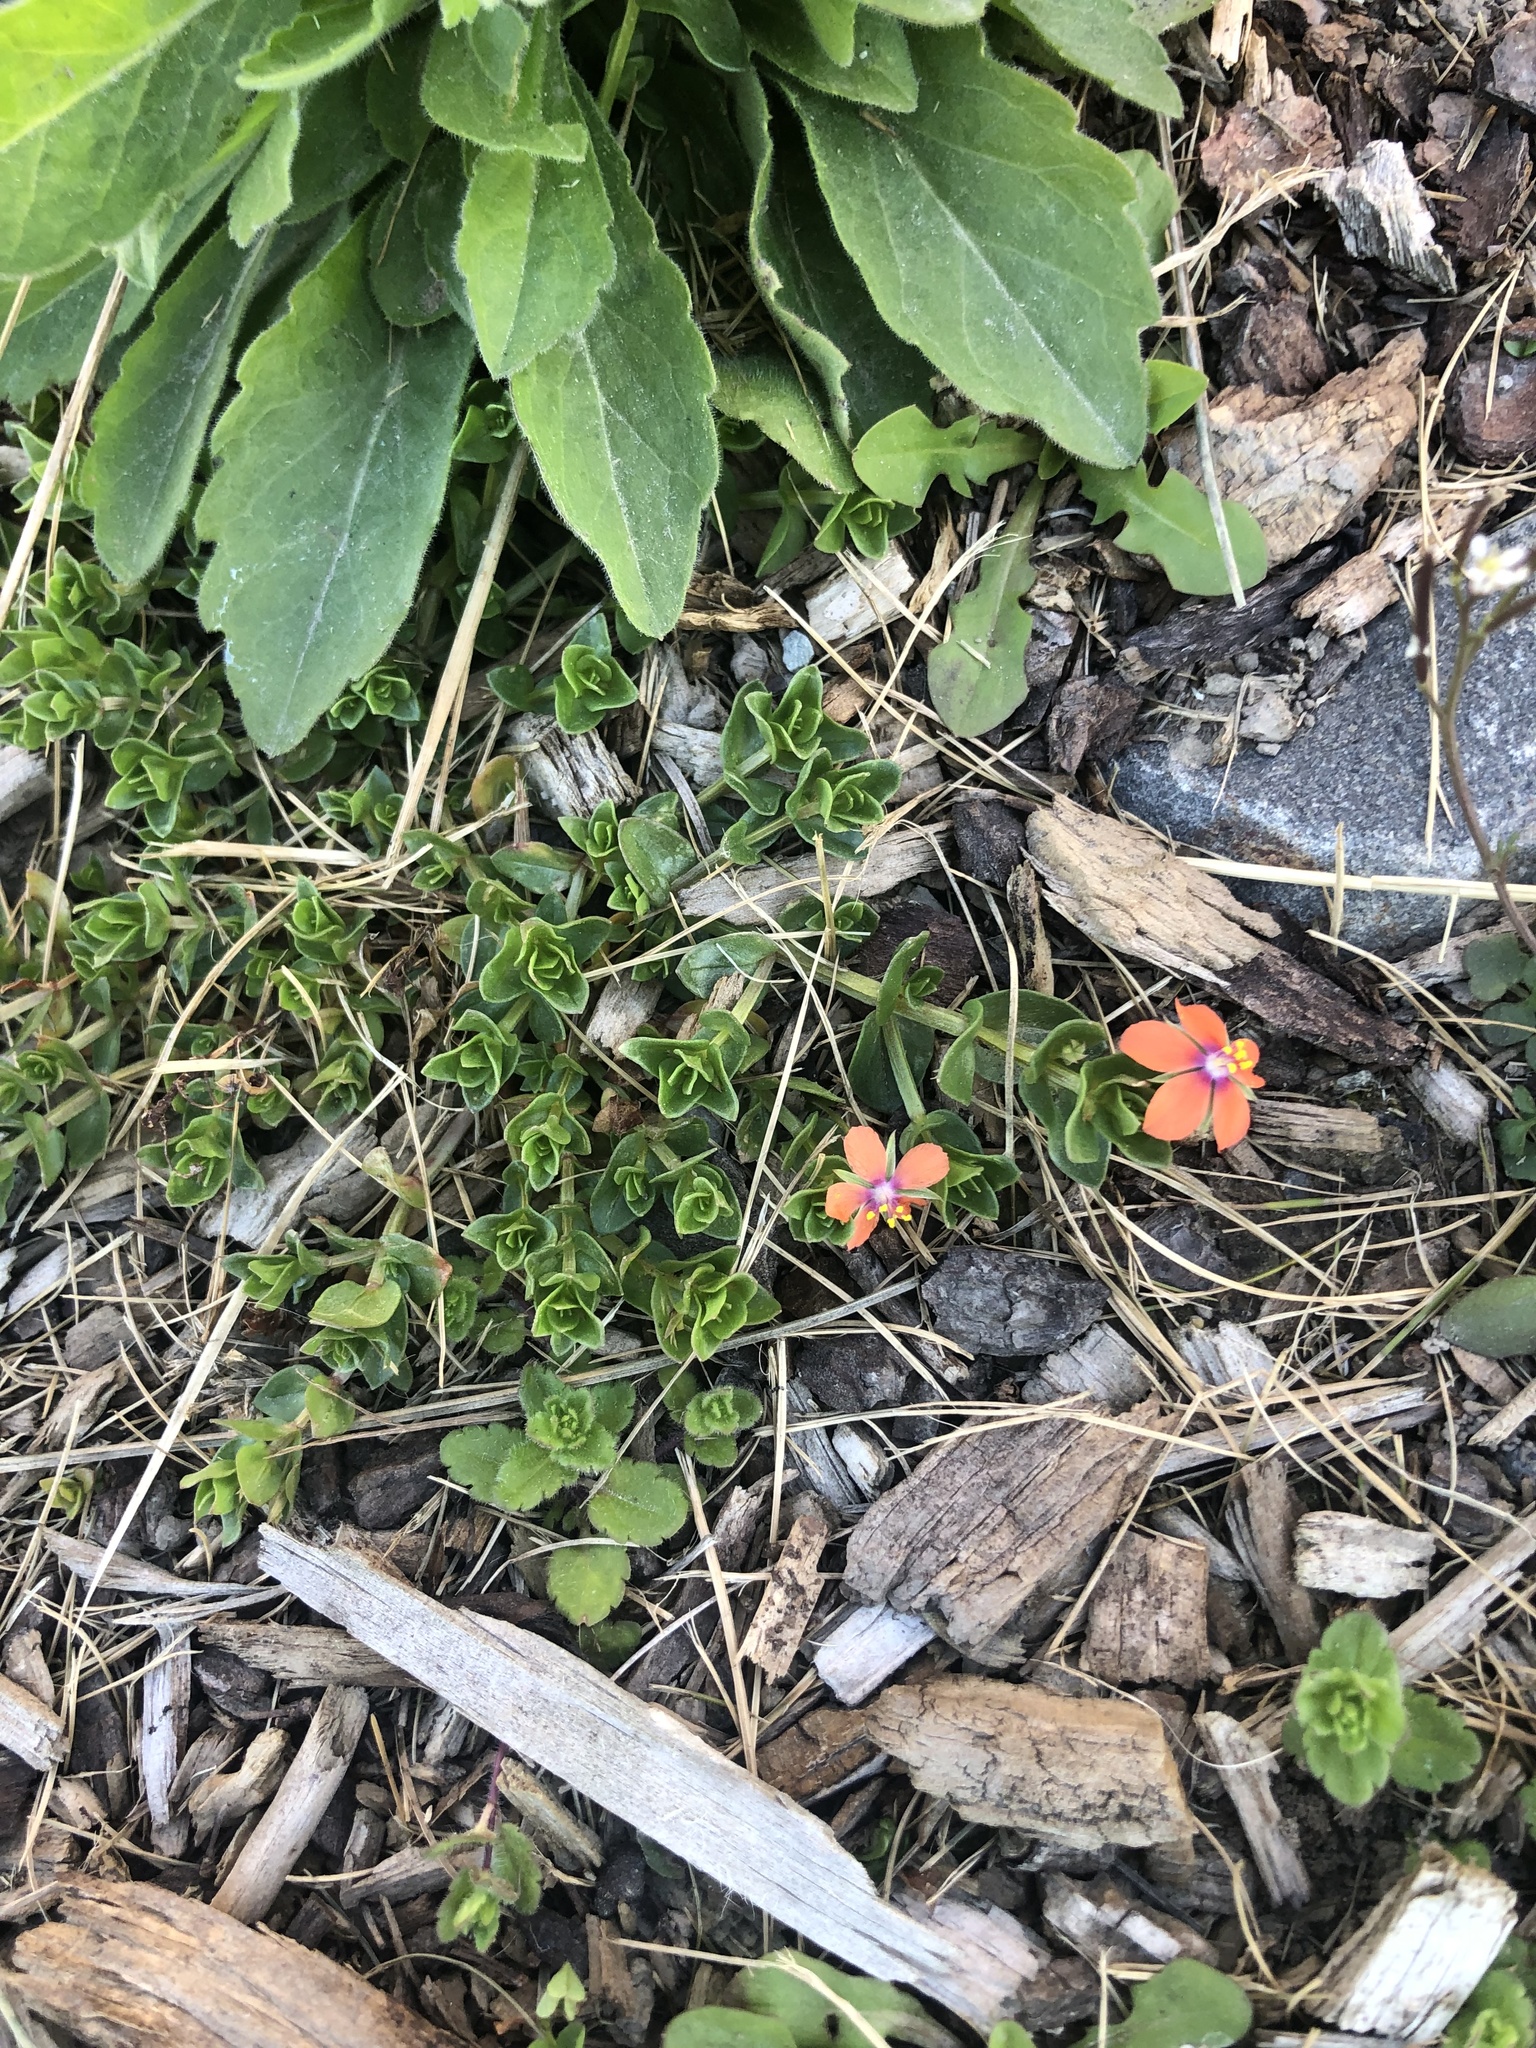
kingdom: Plantae
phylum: Tracheophyta
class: Magnoliopsida
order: Ericales
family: Primulaceae
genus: Lysimachia
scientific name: Lysimachia arvensis
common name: Scarlet pimpernel
